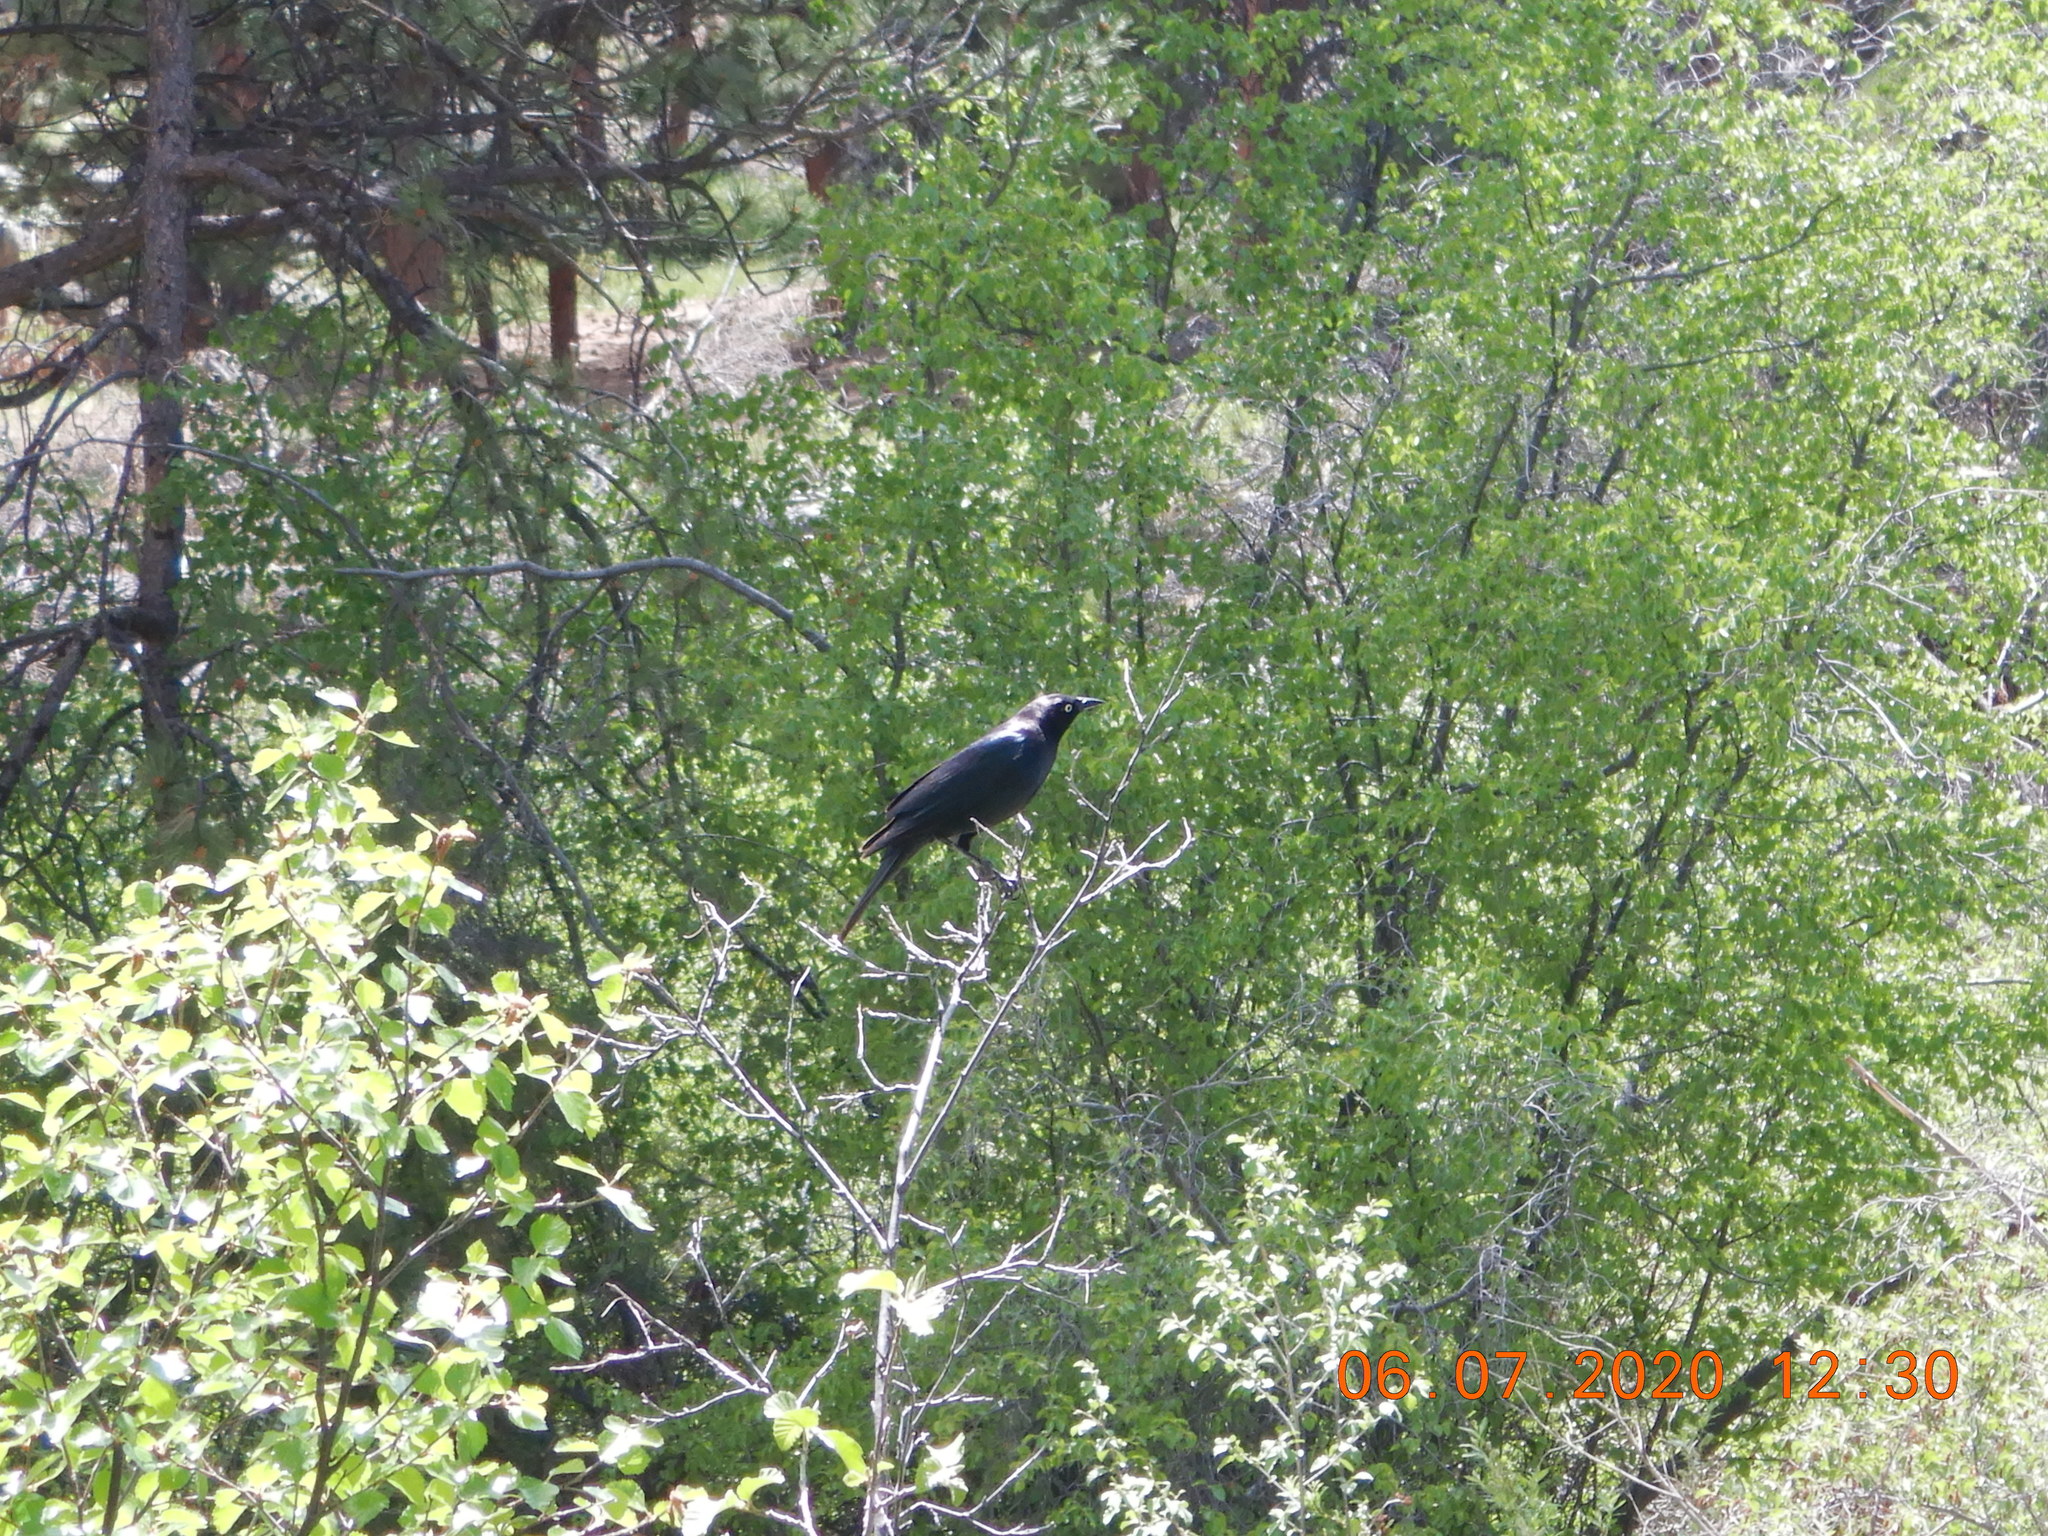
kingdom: Animalia
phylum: Chordata
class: Aves
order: Passeriformes
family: Icteridae
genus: Euphagus
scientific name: Euphagus cyanocephalus
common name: Brewer's blackbird
